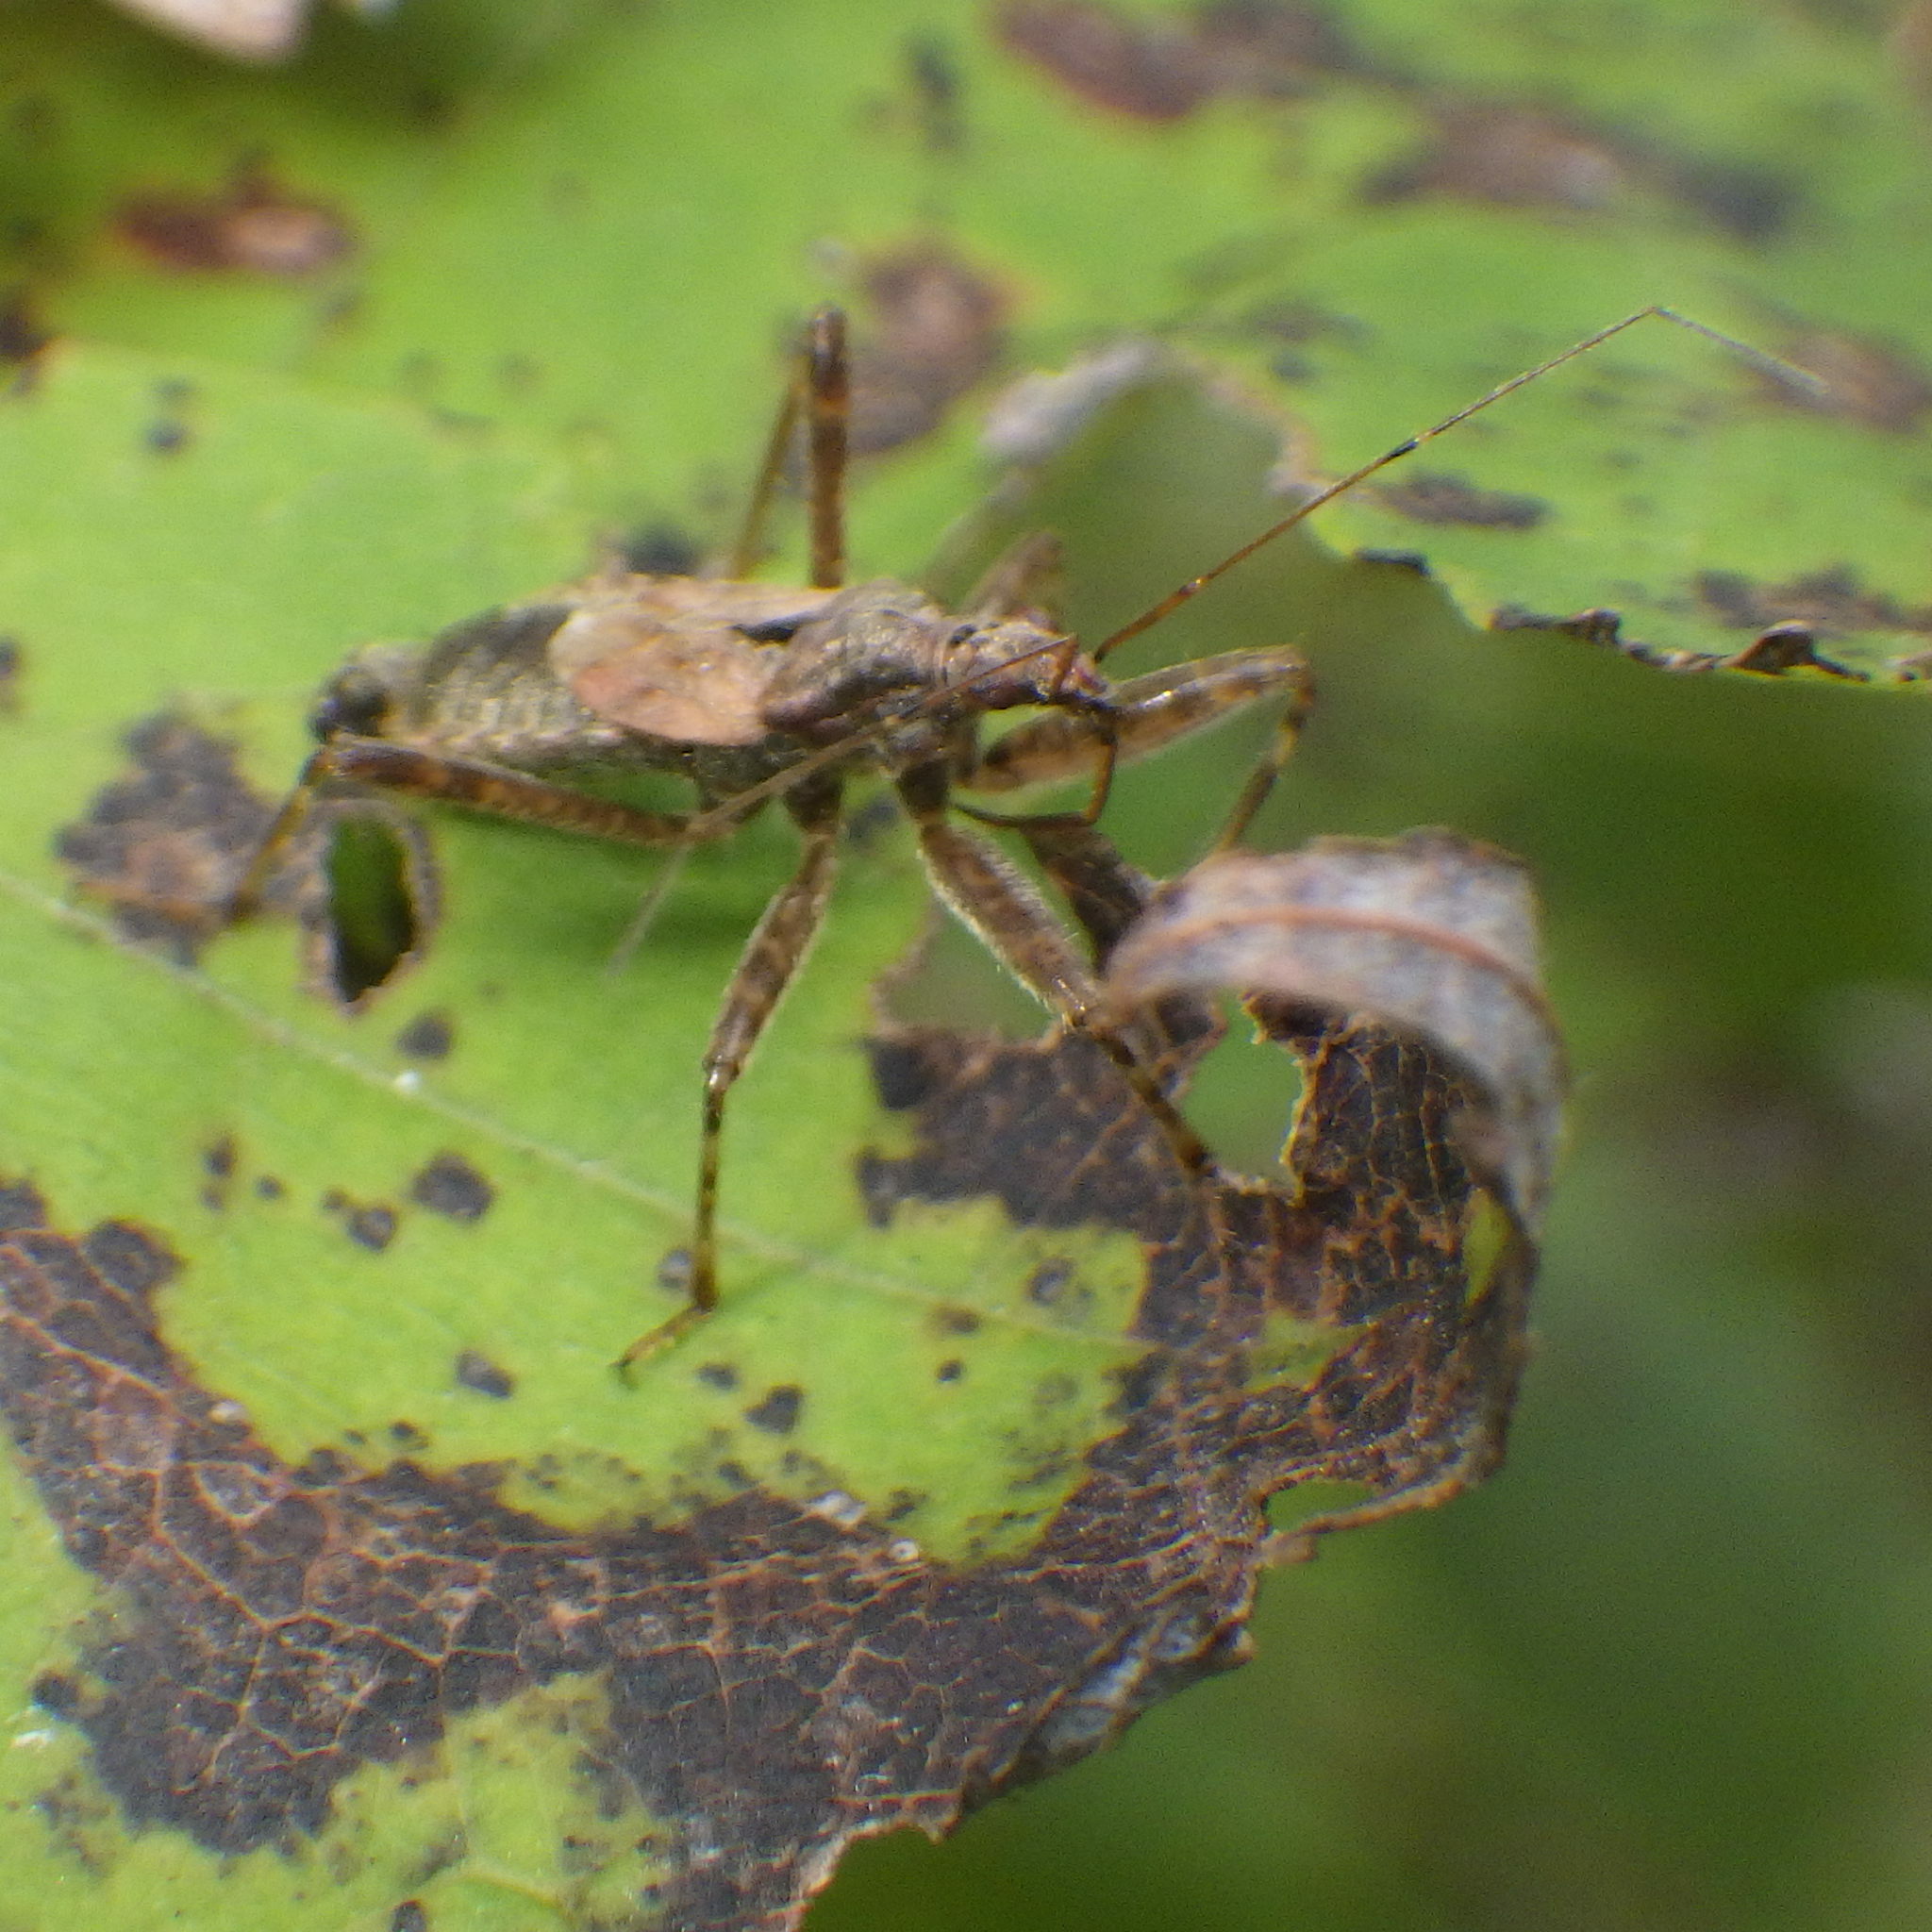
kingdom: Animalia
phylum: Arthropoda
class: Insecta
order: Hemiptera
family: Nabidae
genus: Himacerus
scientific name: Himacerus apterus
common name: Tree damsel bug
